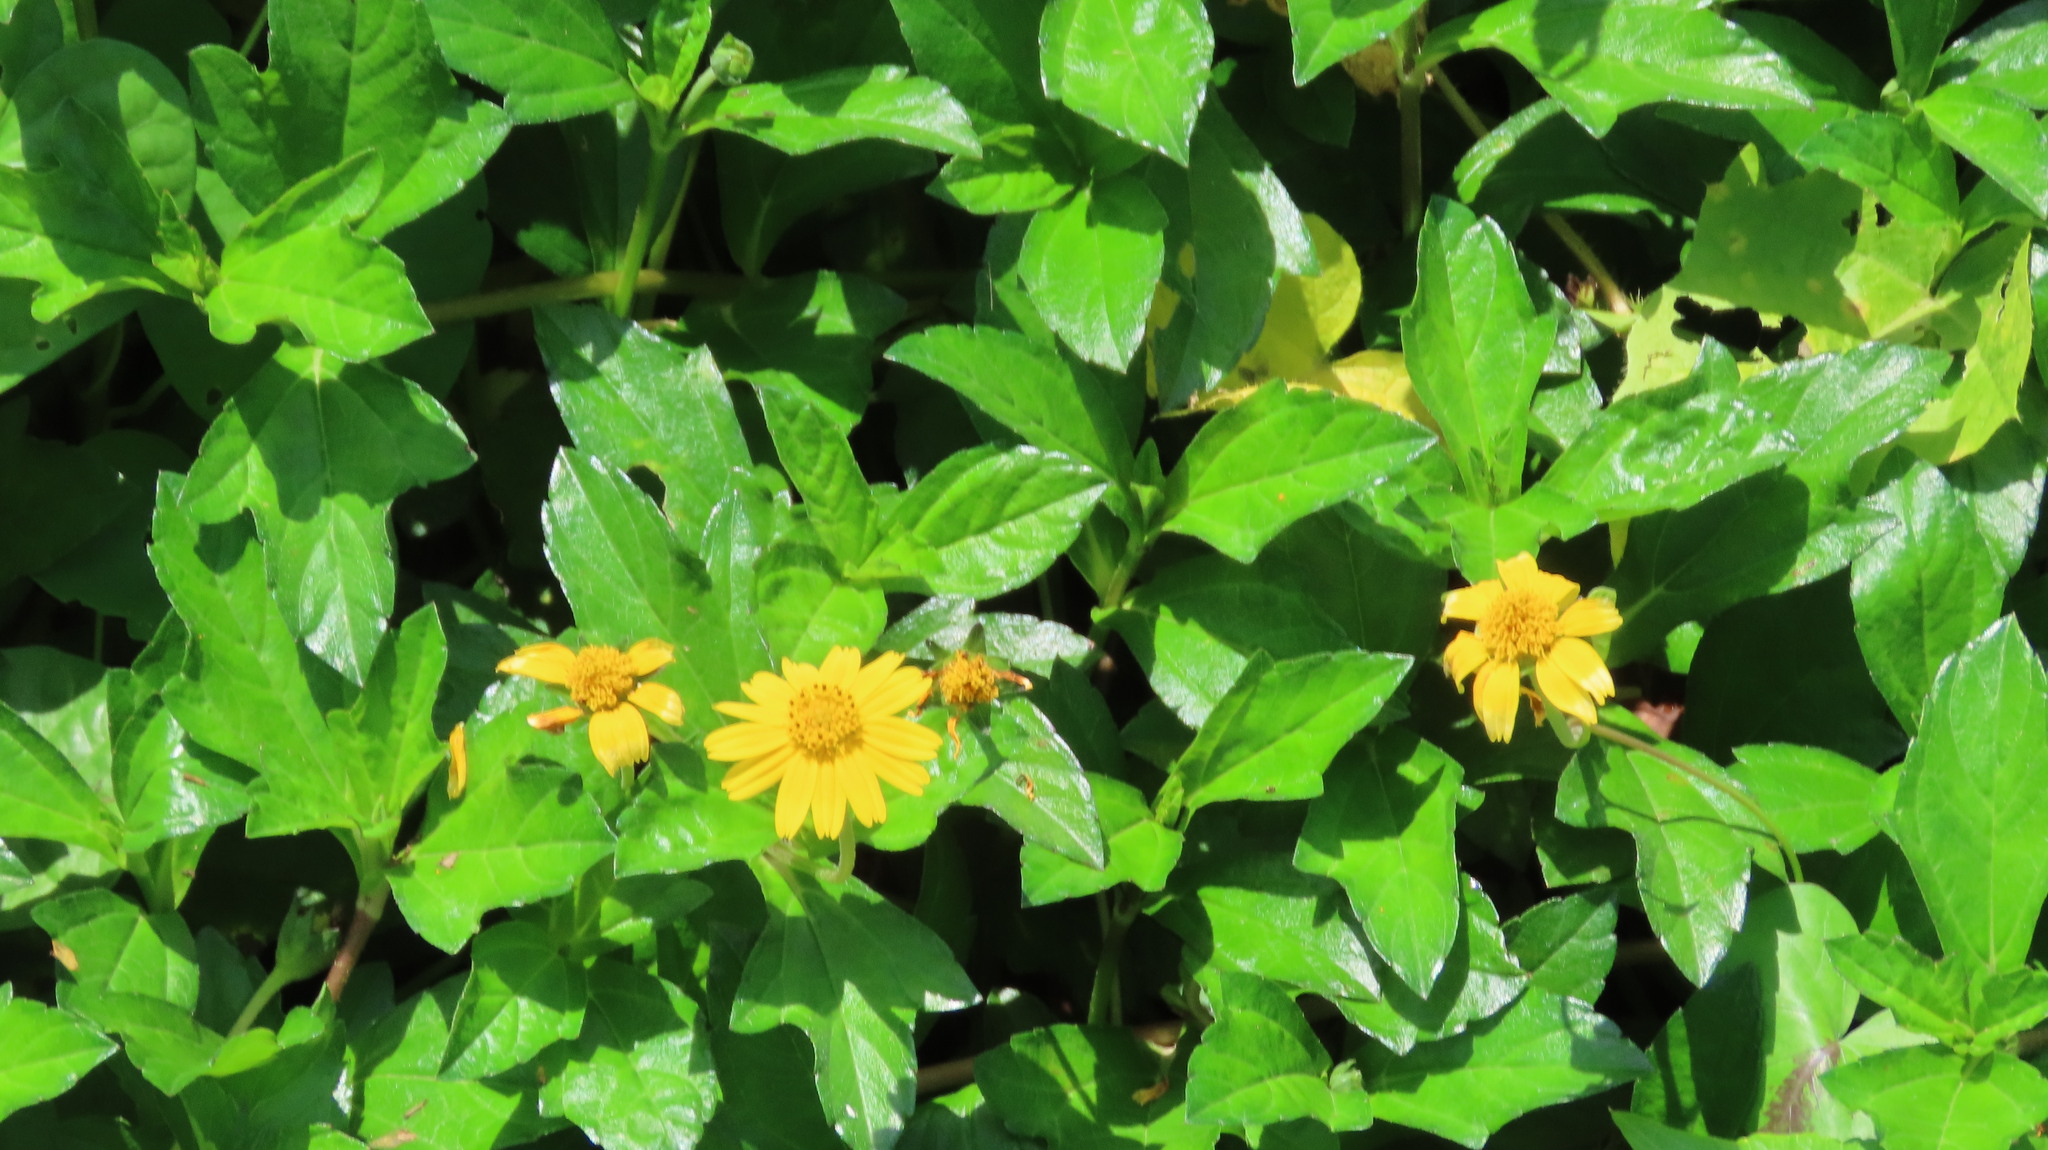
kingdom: Plantae
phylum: Tracheophyta
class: Magnoliopsida
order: Asterales
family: Asteraceae
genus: Sphagneticola
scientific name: Sphagneticola trilobata
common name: Bay biscayne creeping-oxeye
